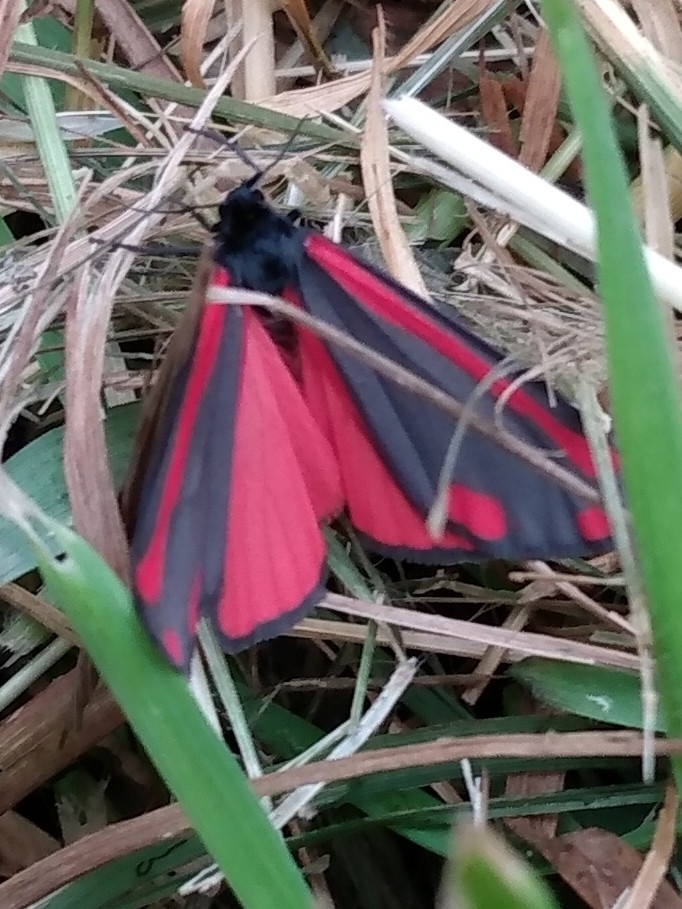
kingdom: Animalia
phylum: Arthropoda
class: Insecta
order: Lepidoptera
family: Erebidae
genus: Tyria
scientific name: Tyria jacobaeae
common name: Cinnabar
